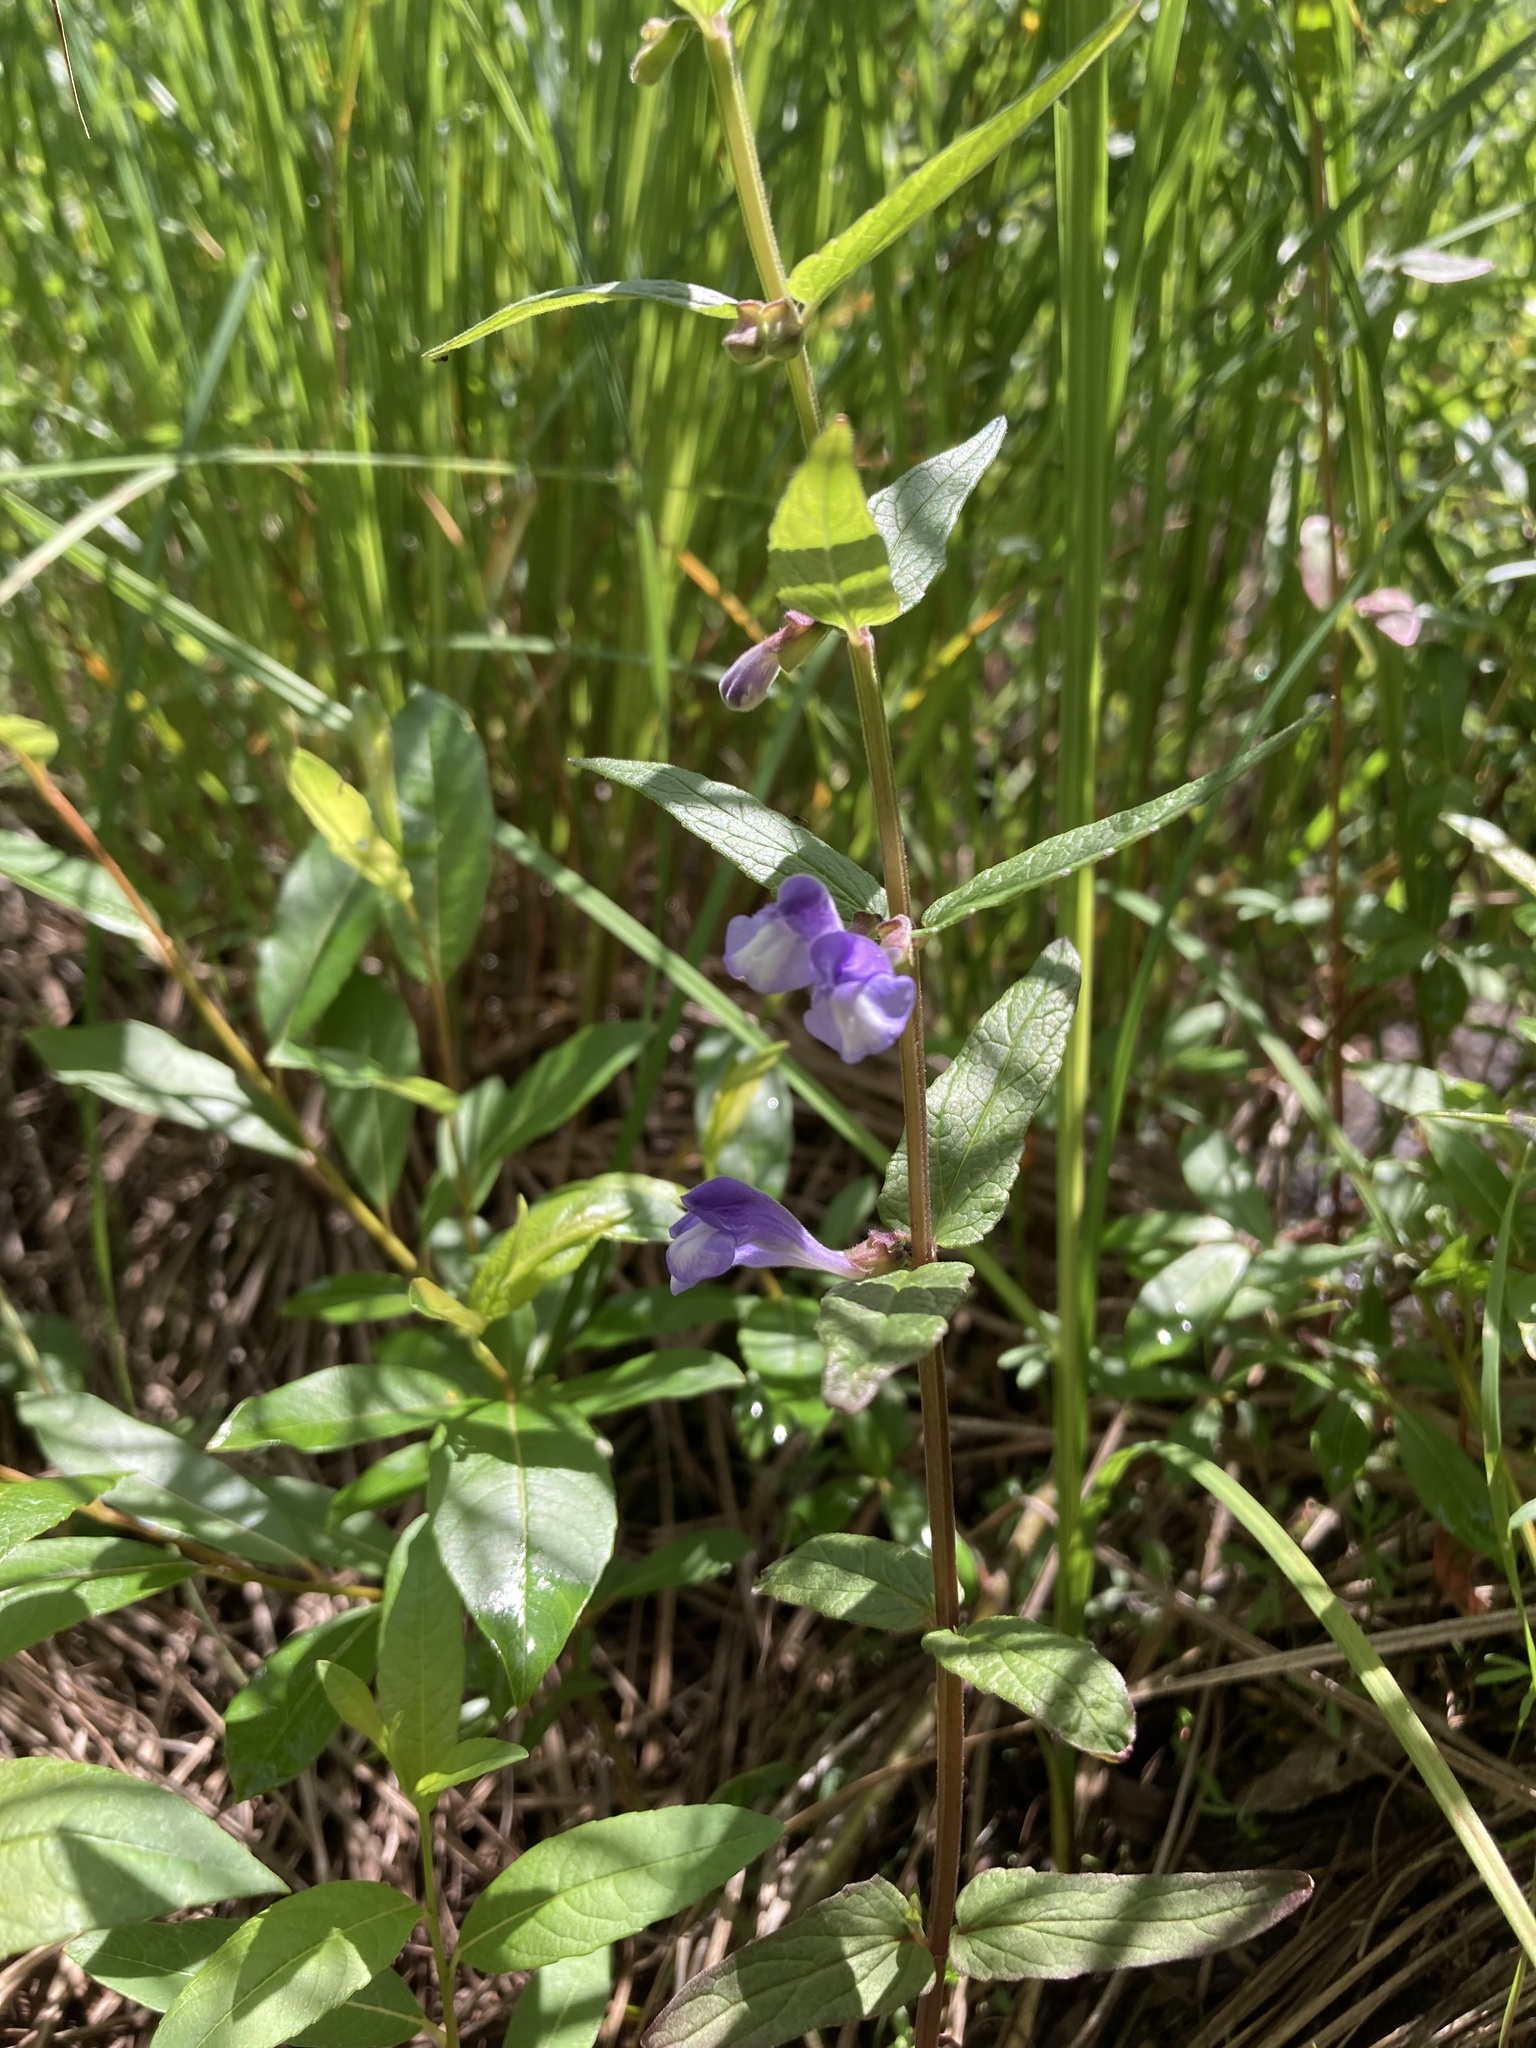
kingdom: Plantae
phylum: Tracheophyta
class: Magnoliopsida
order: Lamiales
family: Lamiaceae
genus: Scutellaria
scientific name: Scutellaria galericulata
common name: Skullcap
